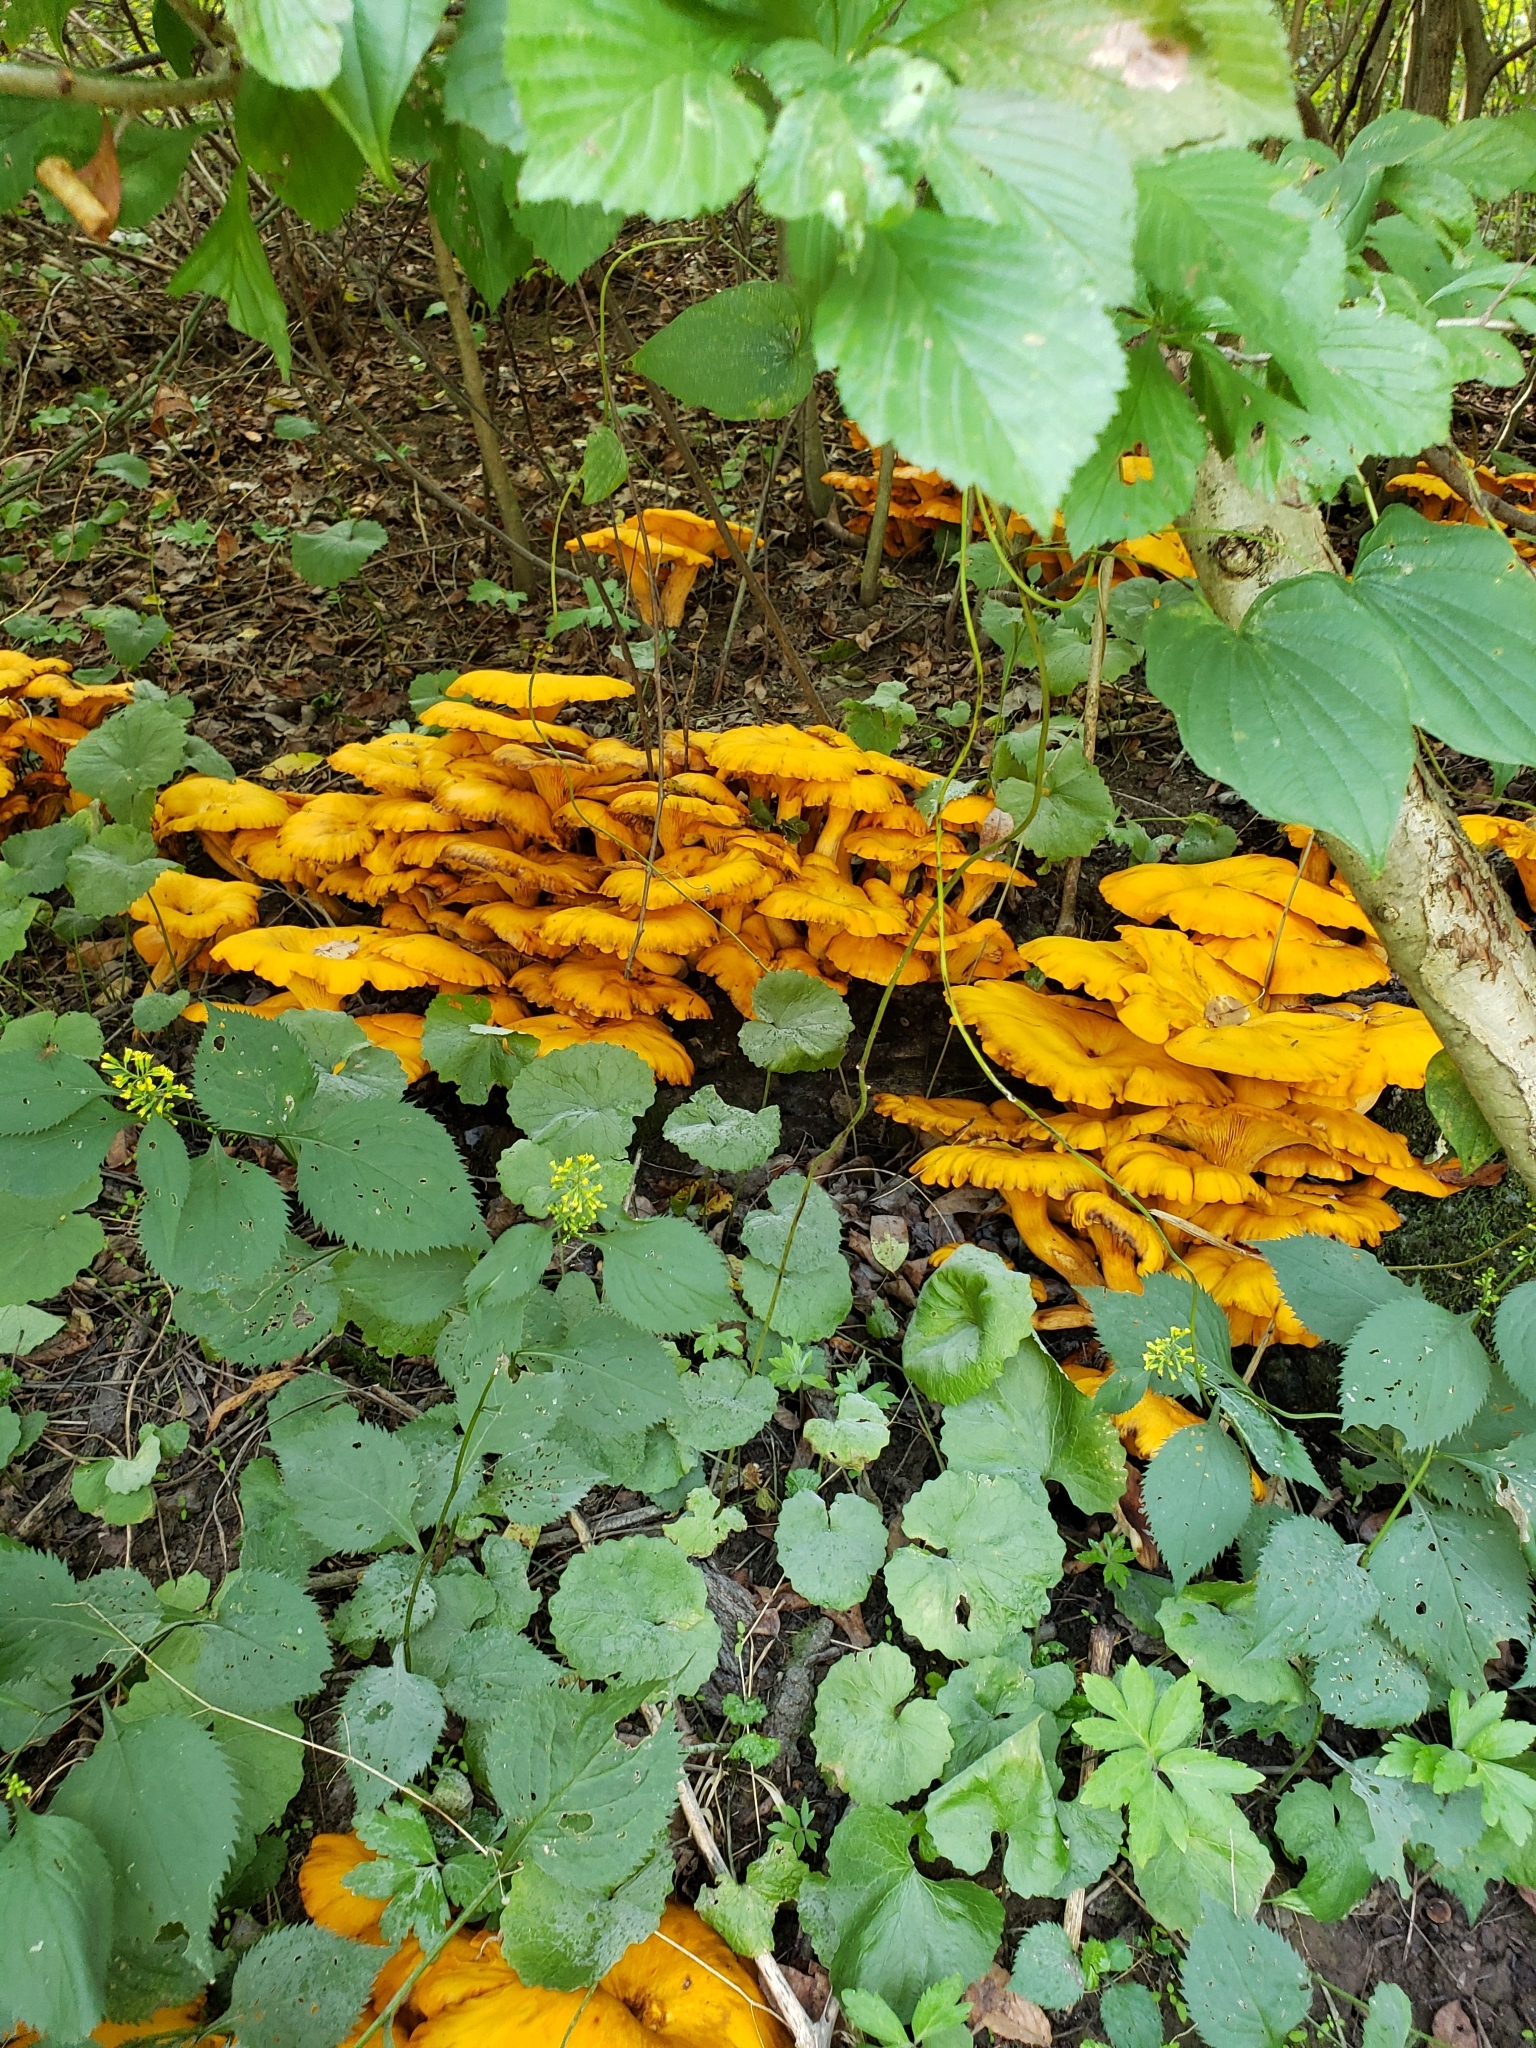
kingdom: Fungi
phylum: Basidiomycota
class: Agaricomycetes
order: Agaricales
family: Omphalotaceae
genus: Omphalotus
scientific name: Omphalotus illudens
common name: Jack o lantern
